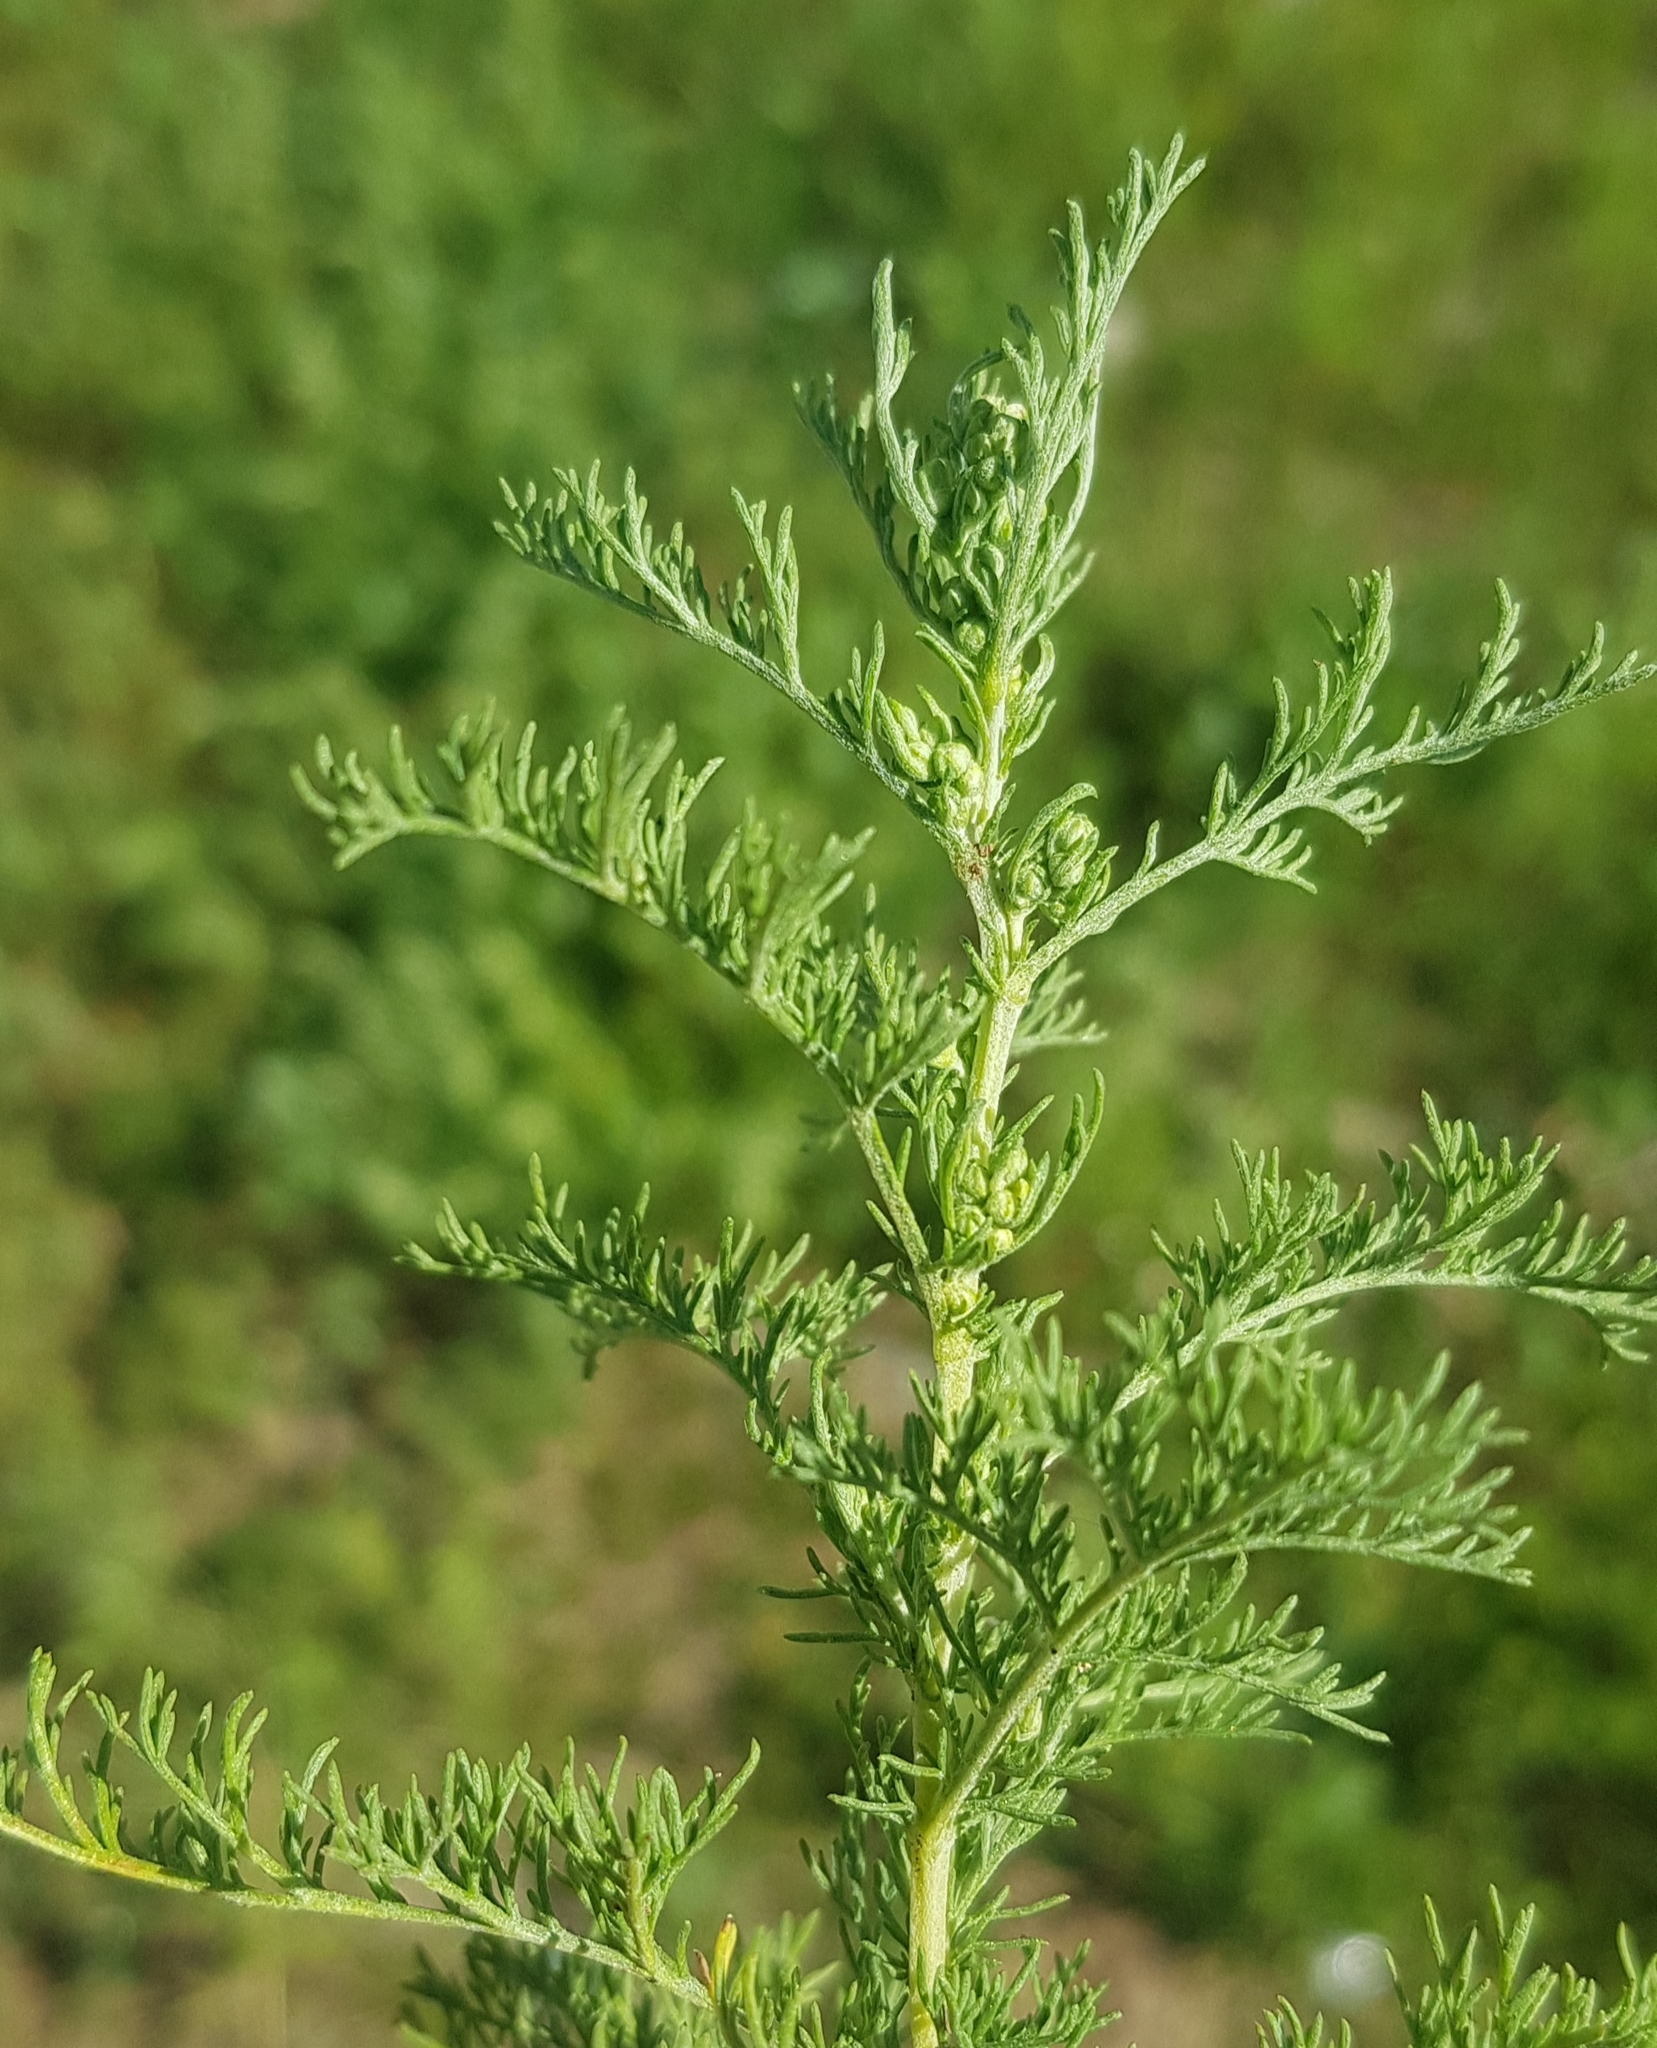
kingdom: Plantae
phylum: Tracheophyta
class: Magnoliopsida
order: Asterales
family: Asteraceae
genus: Artemisia
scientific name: Artemisia adamsii
